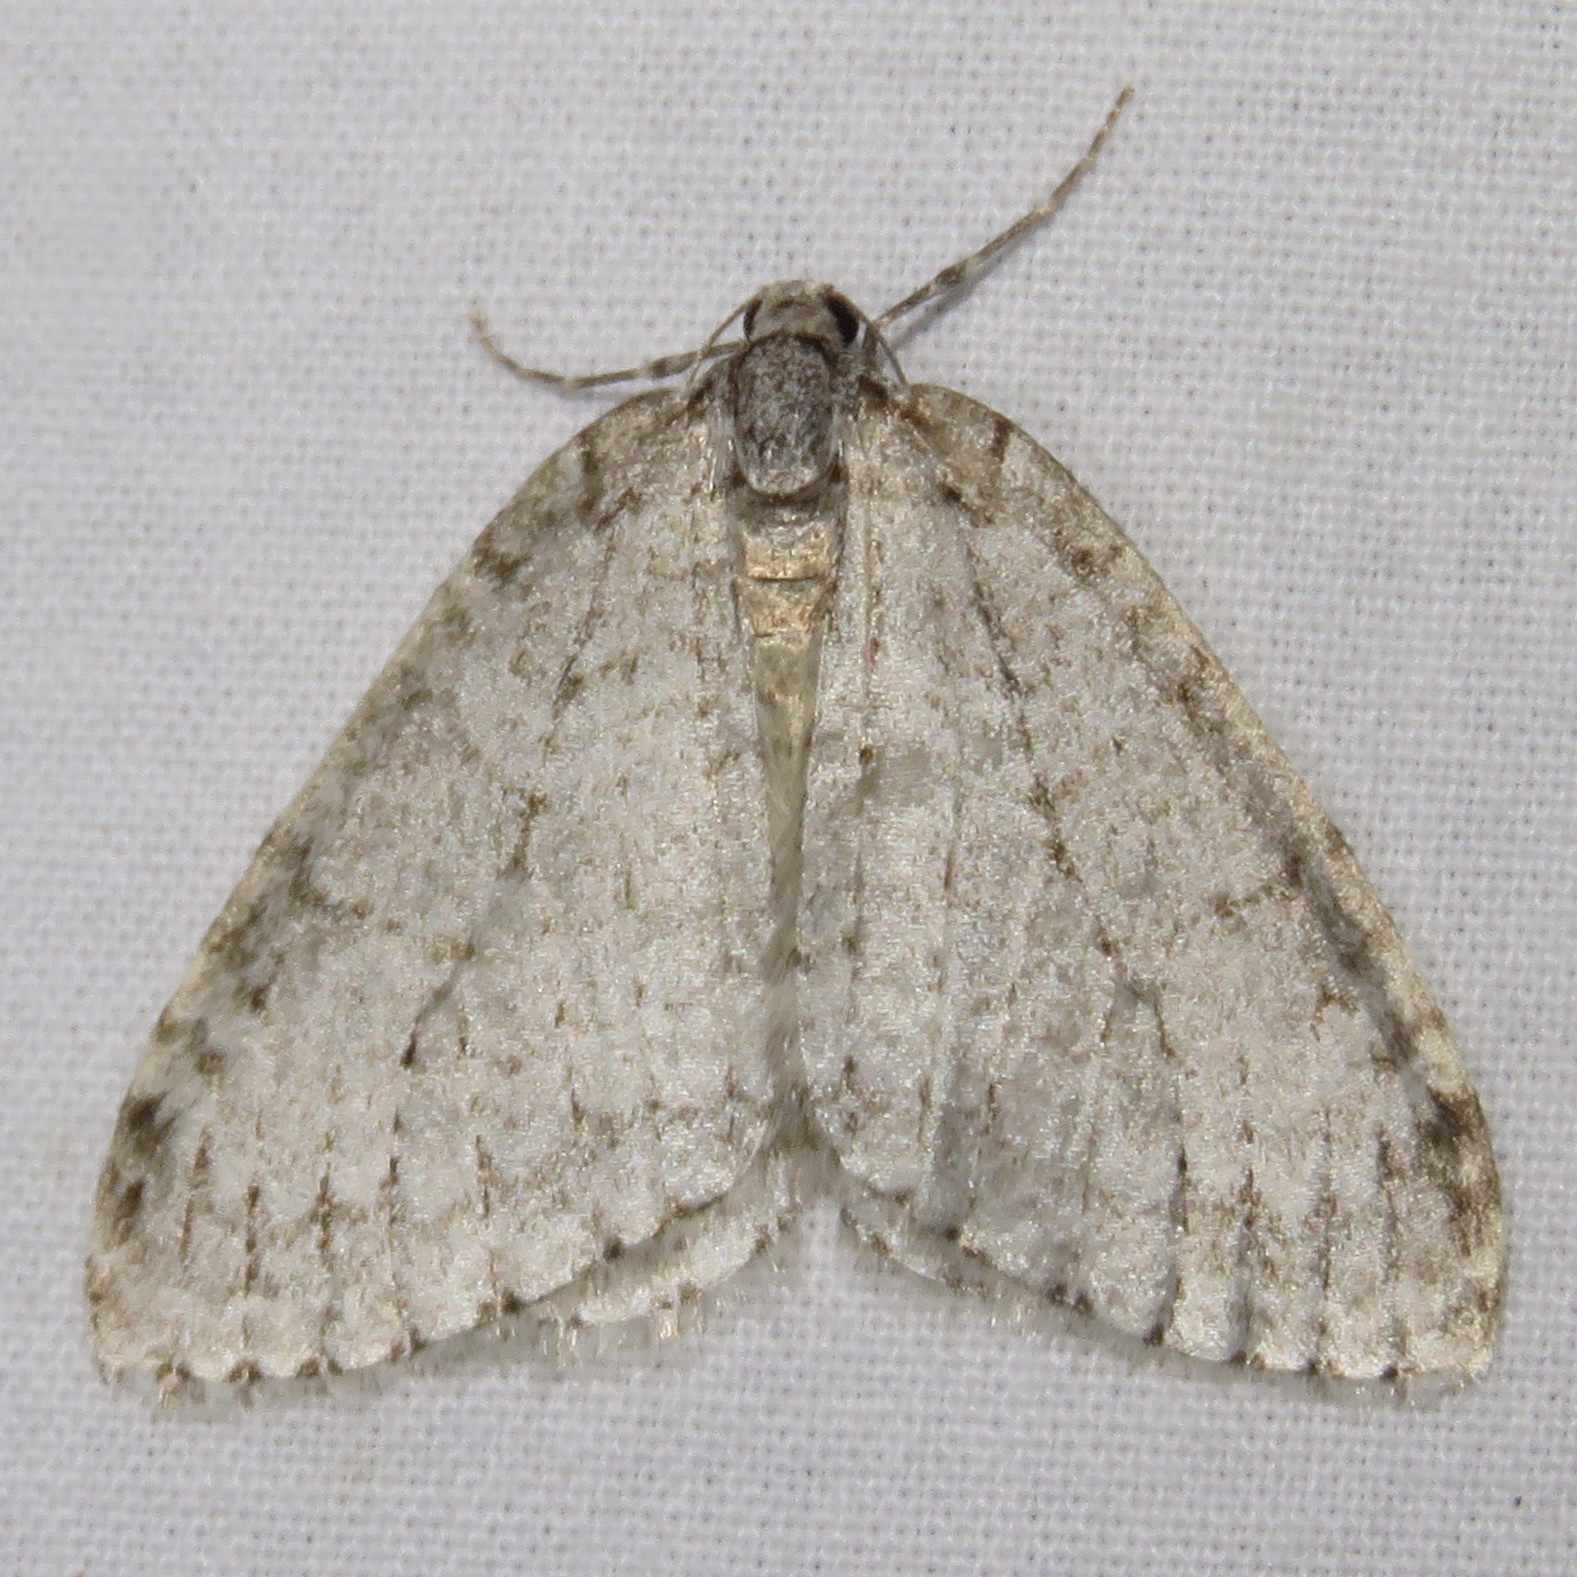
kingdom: Animalia
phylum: Arthropoda
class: Insecta
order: Lepidoptera
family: Geometridae
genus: Epirrita
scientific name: Epirrita autumnata
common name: Autumnal moth
